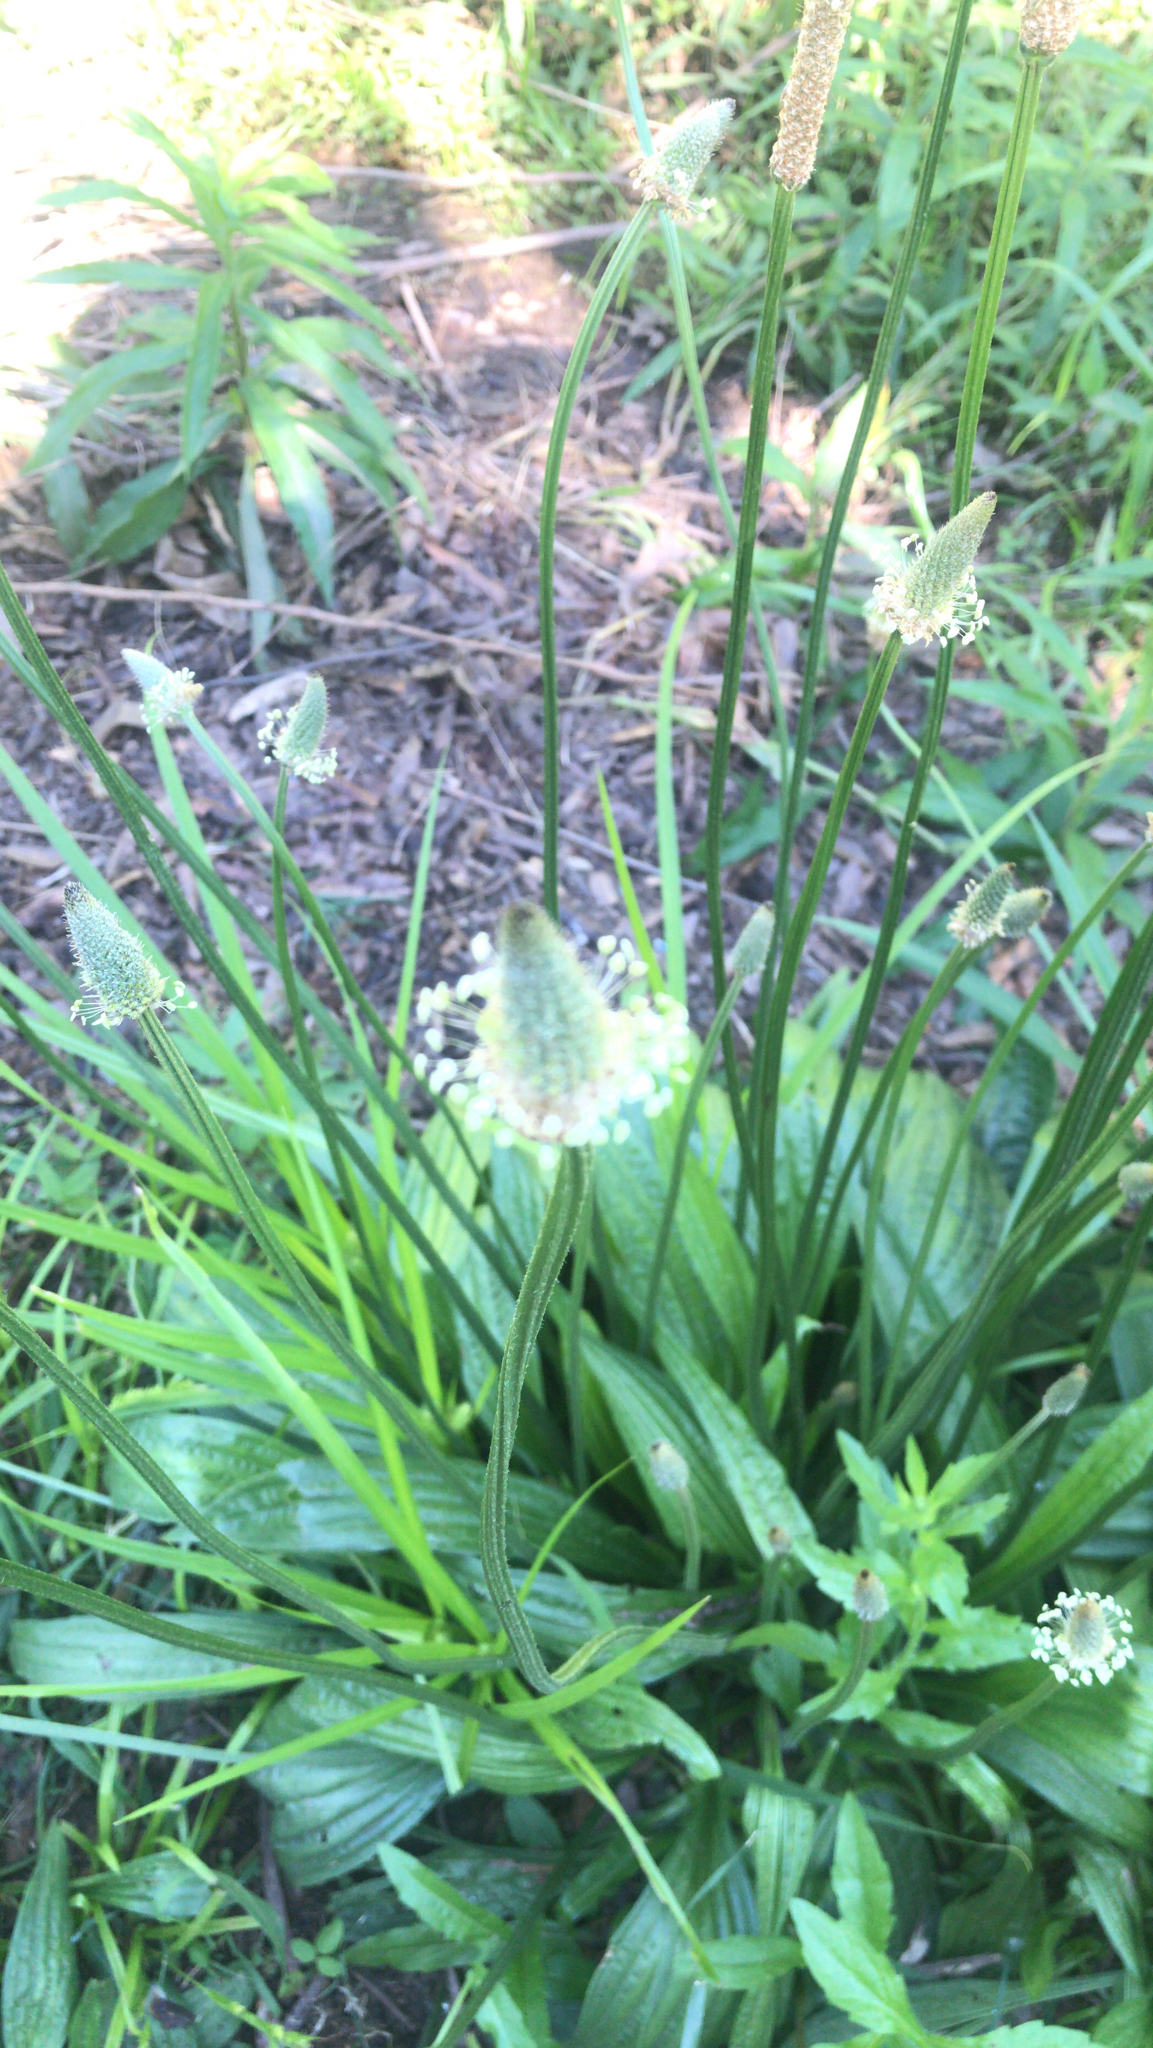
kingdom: Plantae
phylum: Tracheophyta
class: Magnoliopsida
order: Lamiales
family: Plantaginaceae
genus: Plantago
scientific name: Plantago lanceolata
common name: Ribwort plantain
